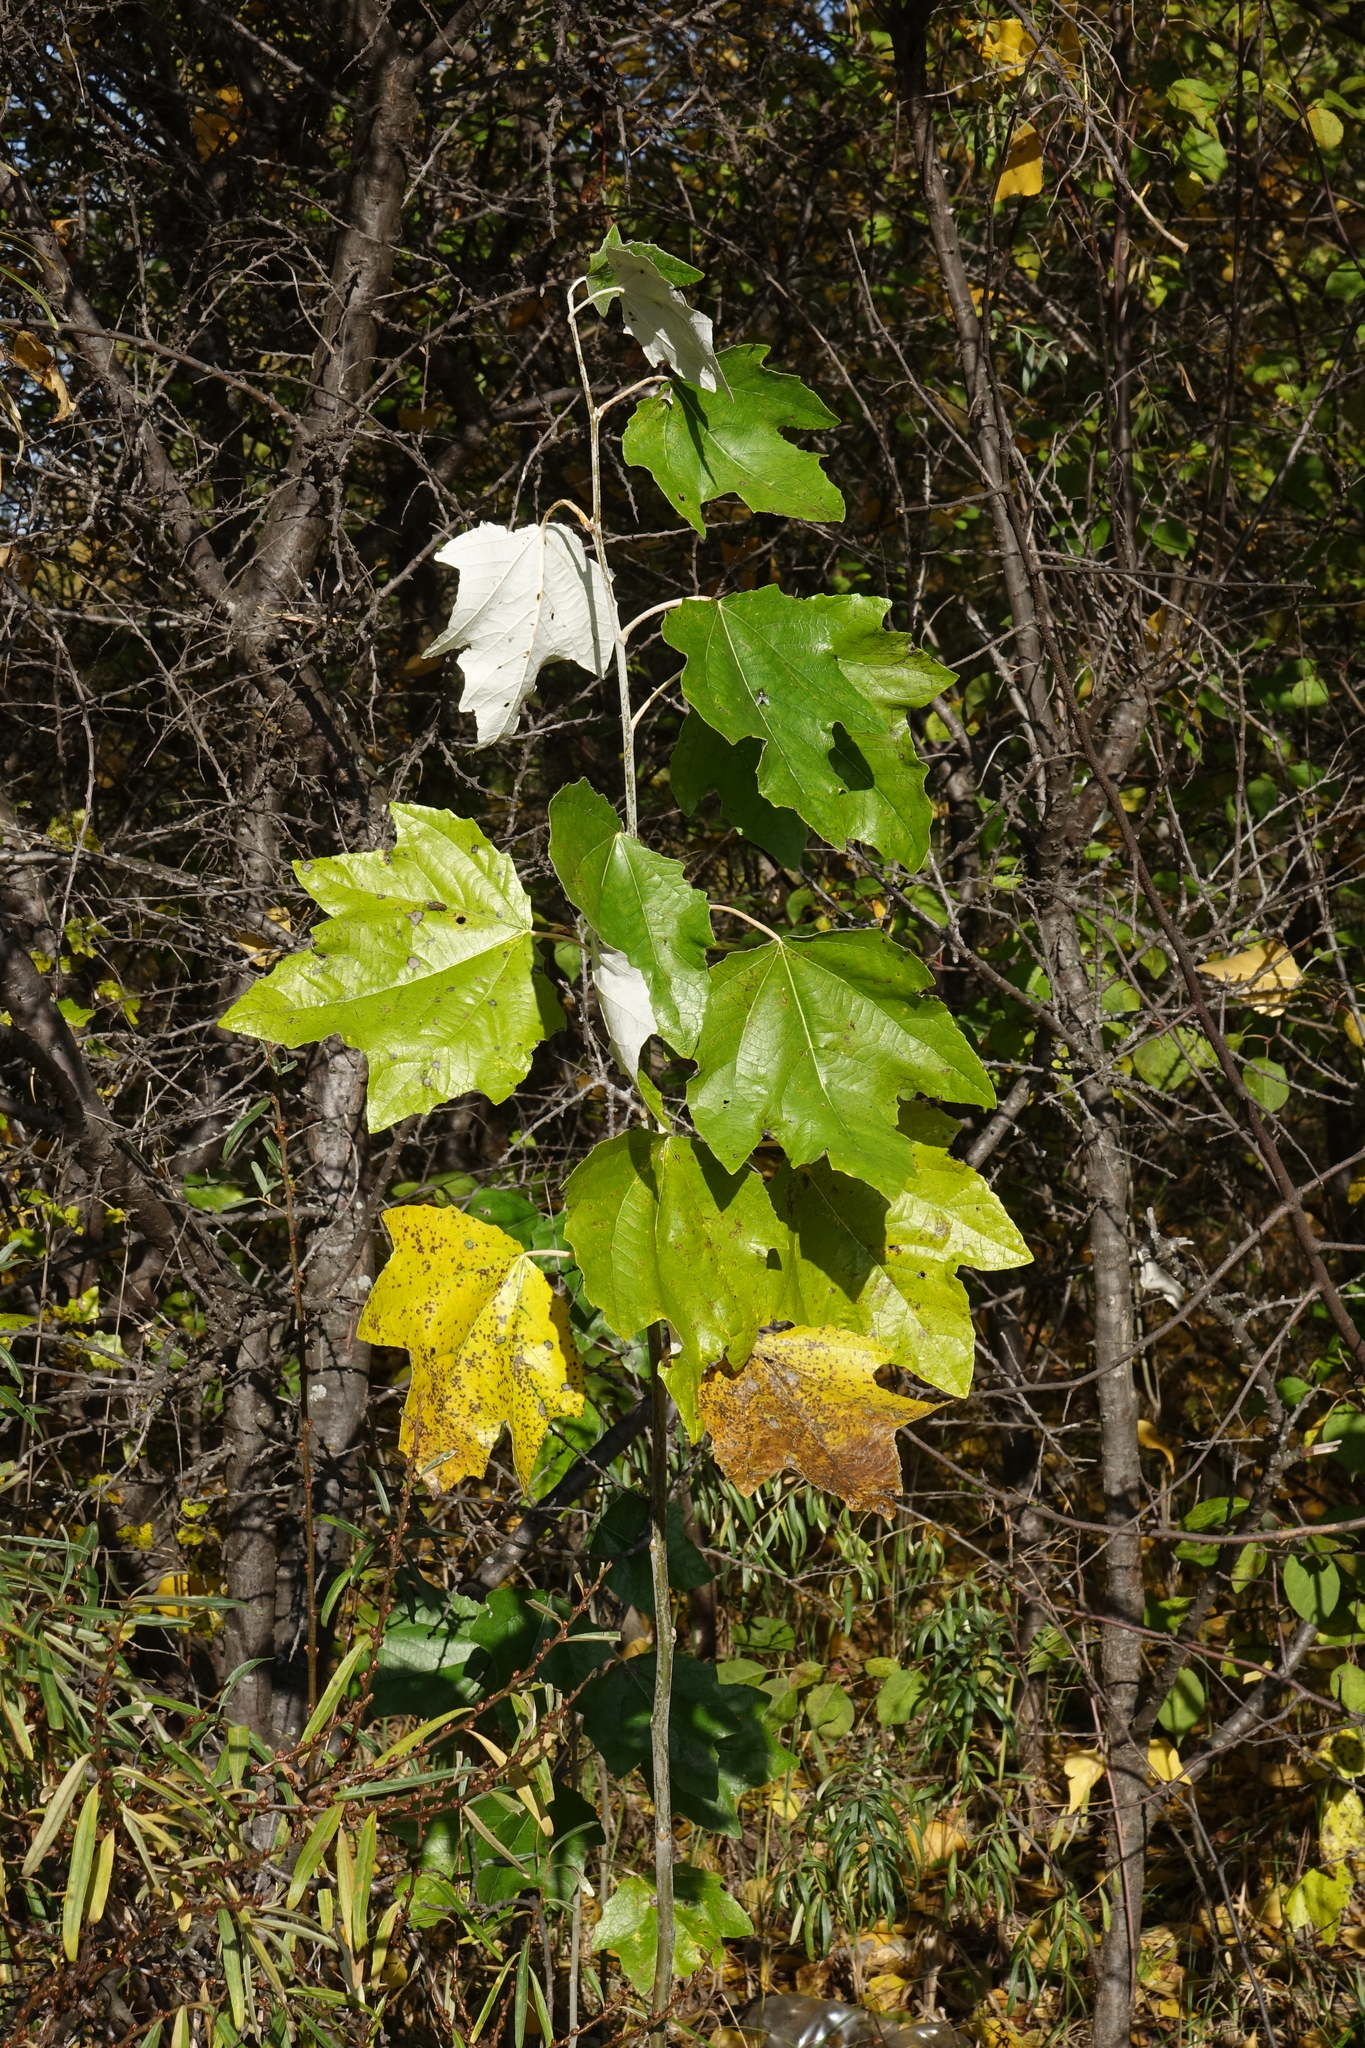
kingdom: Plantae
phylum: Tracheophyta
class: Magnoliopsida
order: Malpighiales
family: Salicaceae
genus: Populus
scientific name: Populus alba
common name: White poplar
